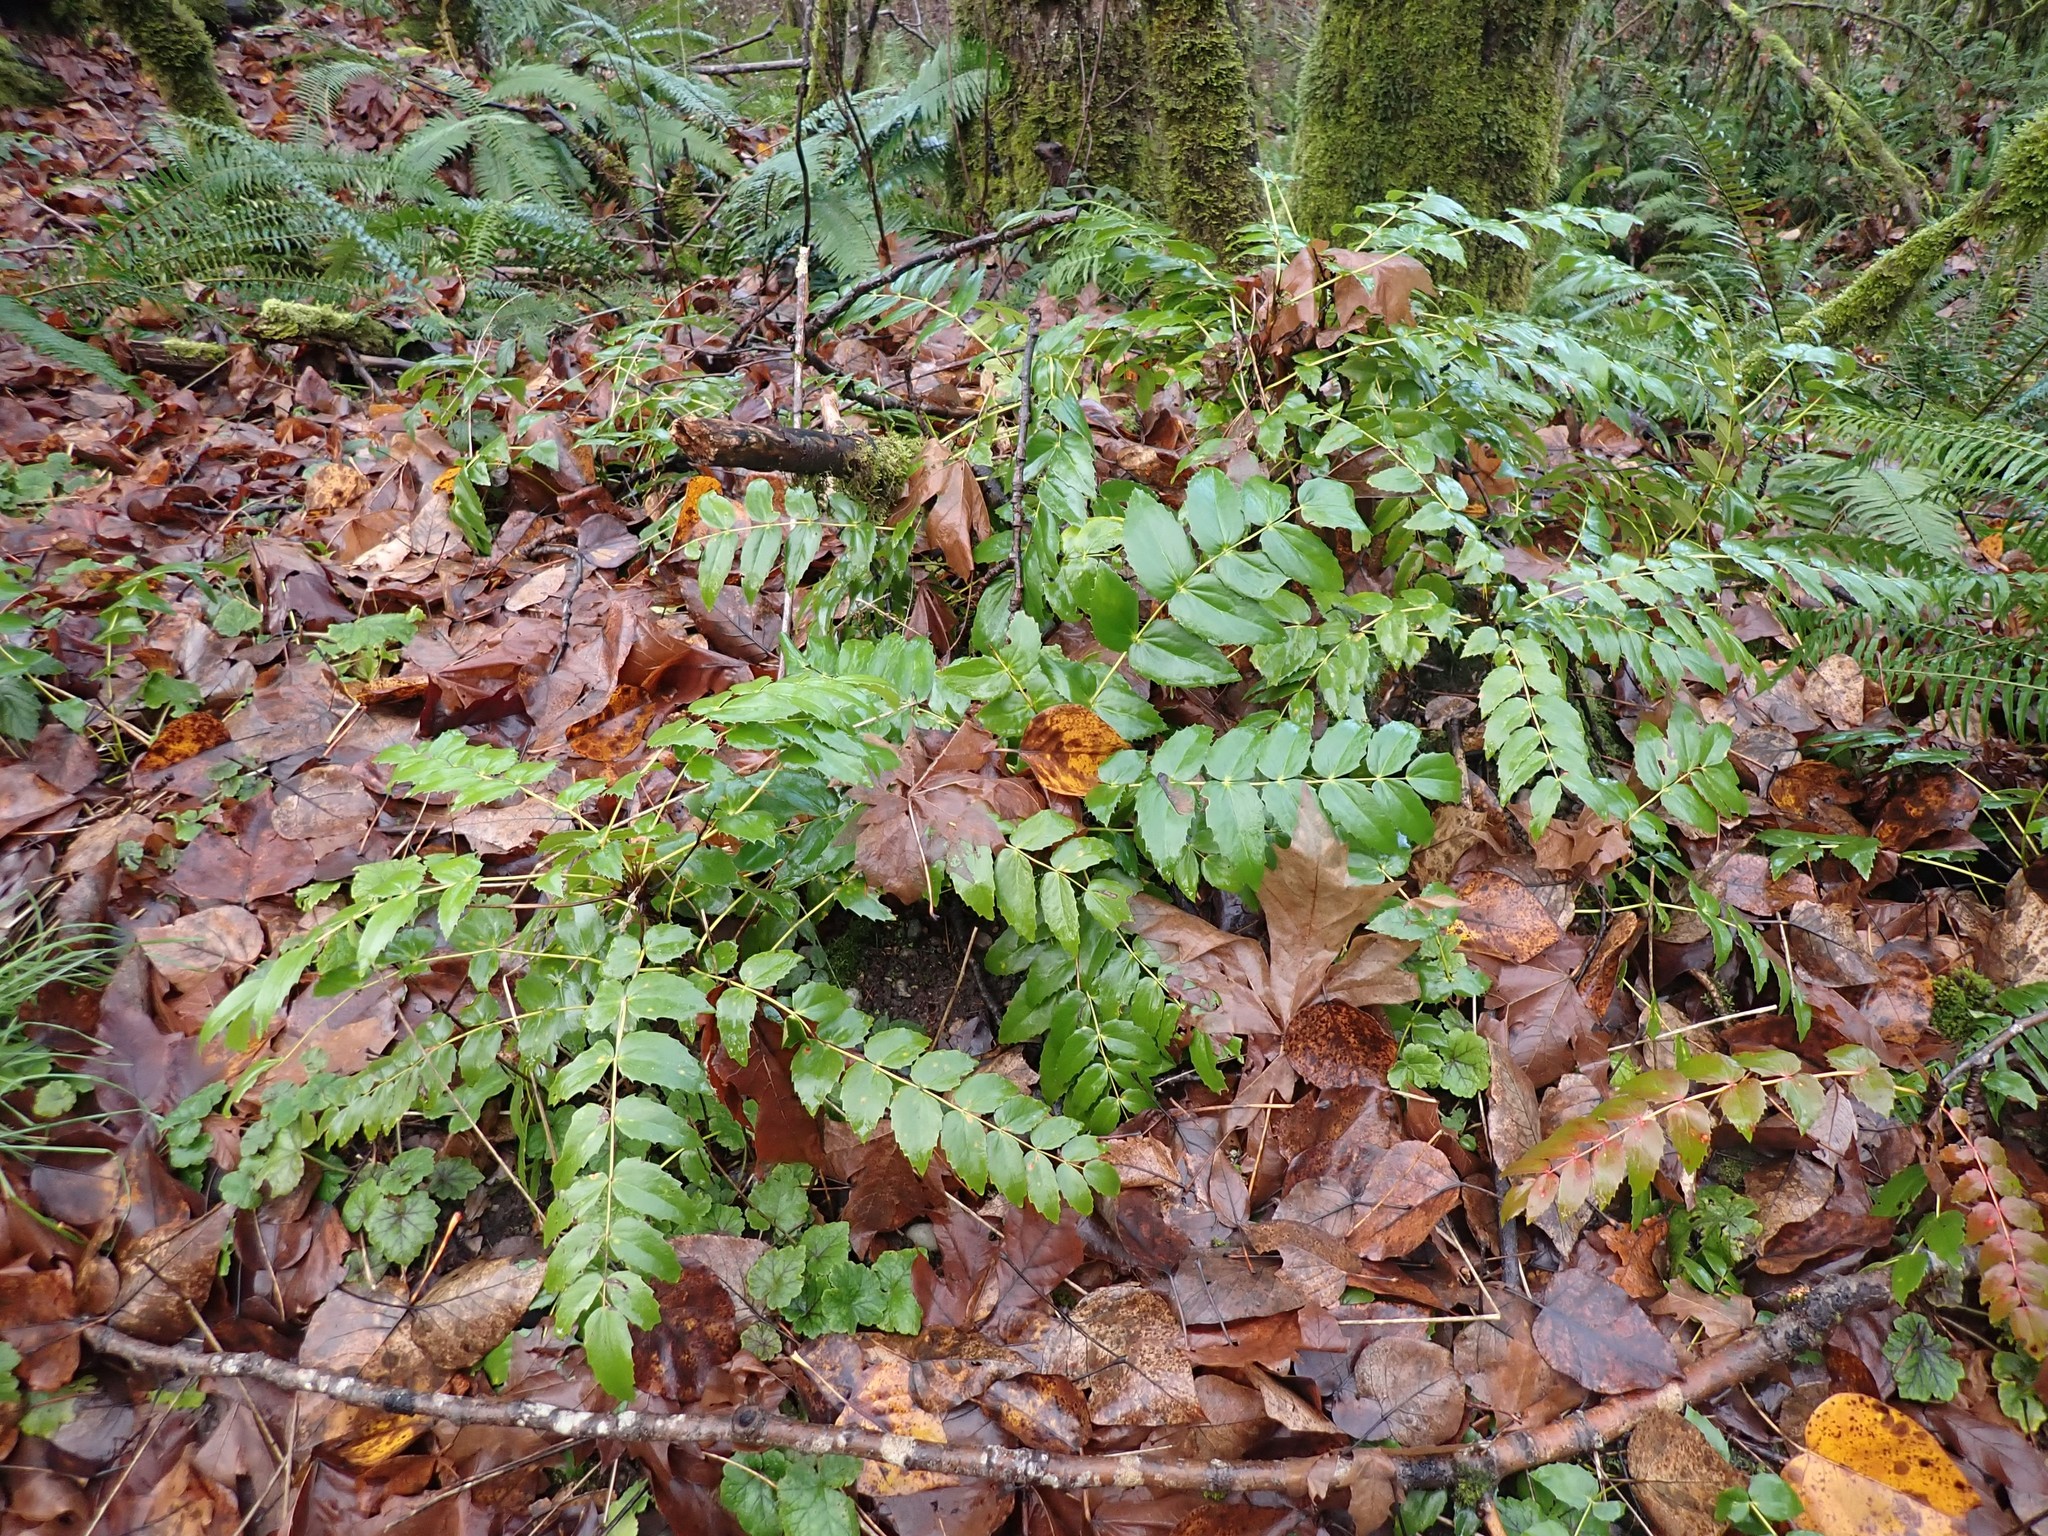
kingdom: Plantae
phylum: Tracheophyta
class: Magnoliopsida
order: Ranunculales
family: Berberidaceae
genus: Mahonia
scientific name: Mahonia nervosa
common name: Cascade oregon-grape
